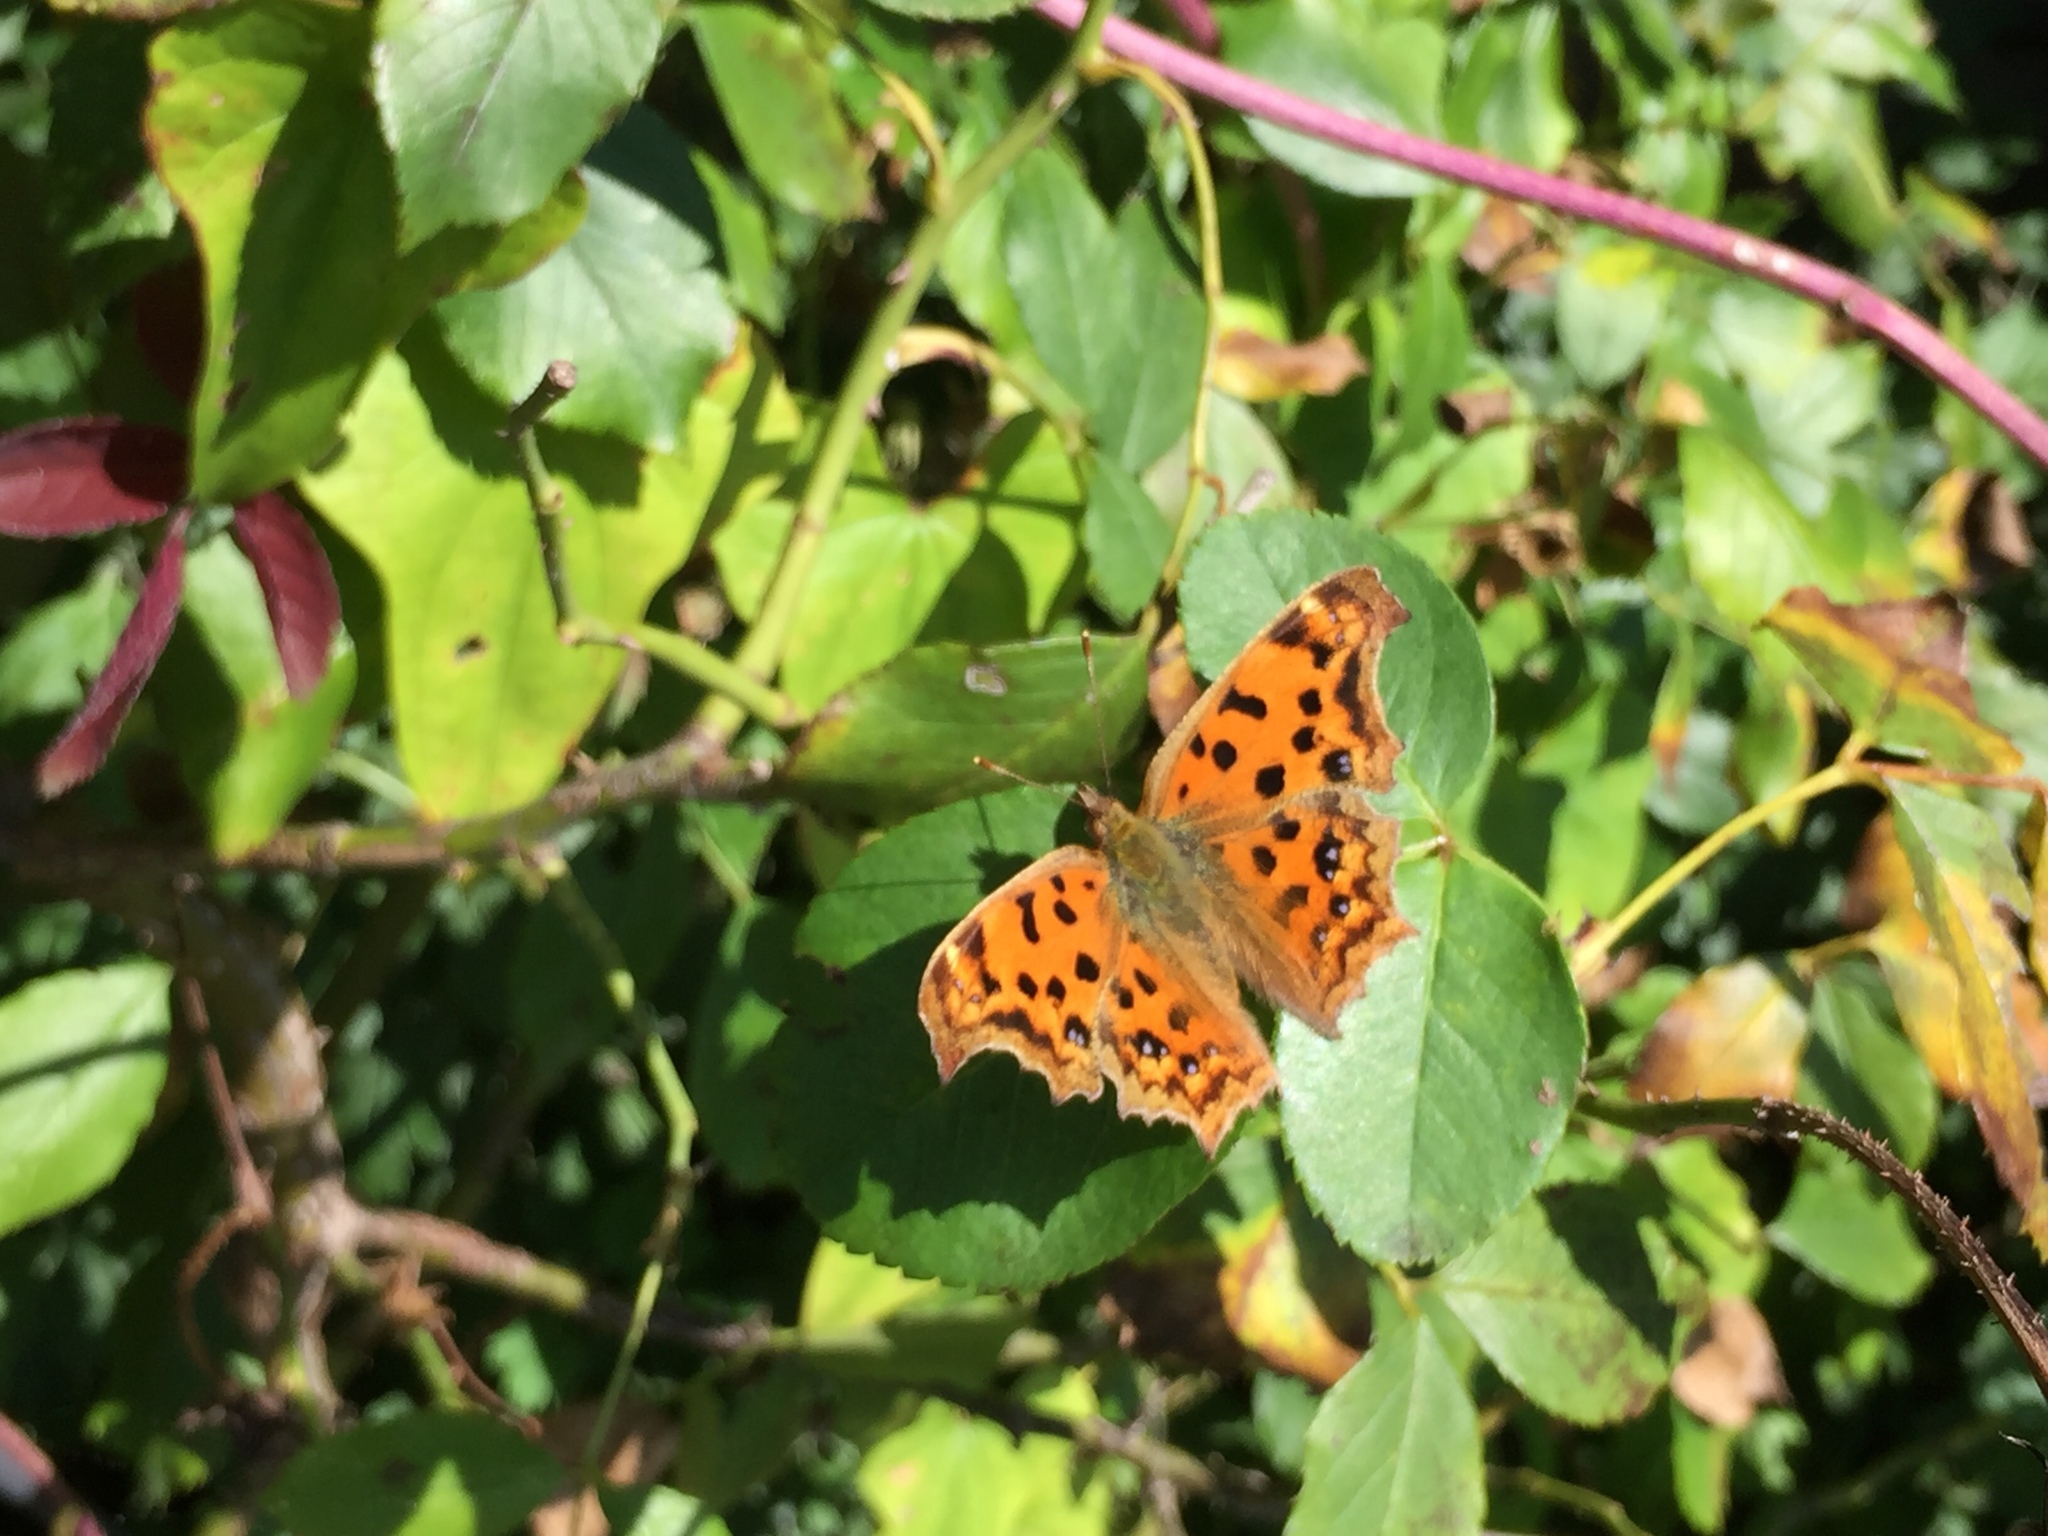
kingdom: Animalia
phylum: Arthropoda
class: Insecta
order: Lepidoptera
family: Nymphalidae
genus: Polygonia
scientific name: Polygonia c-aureum
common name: Asian comma
